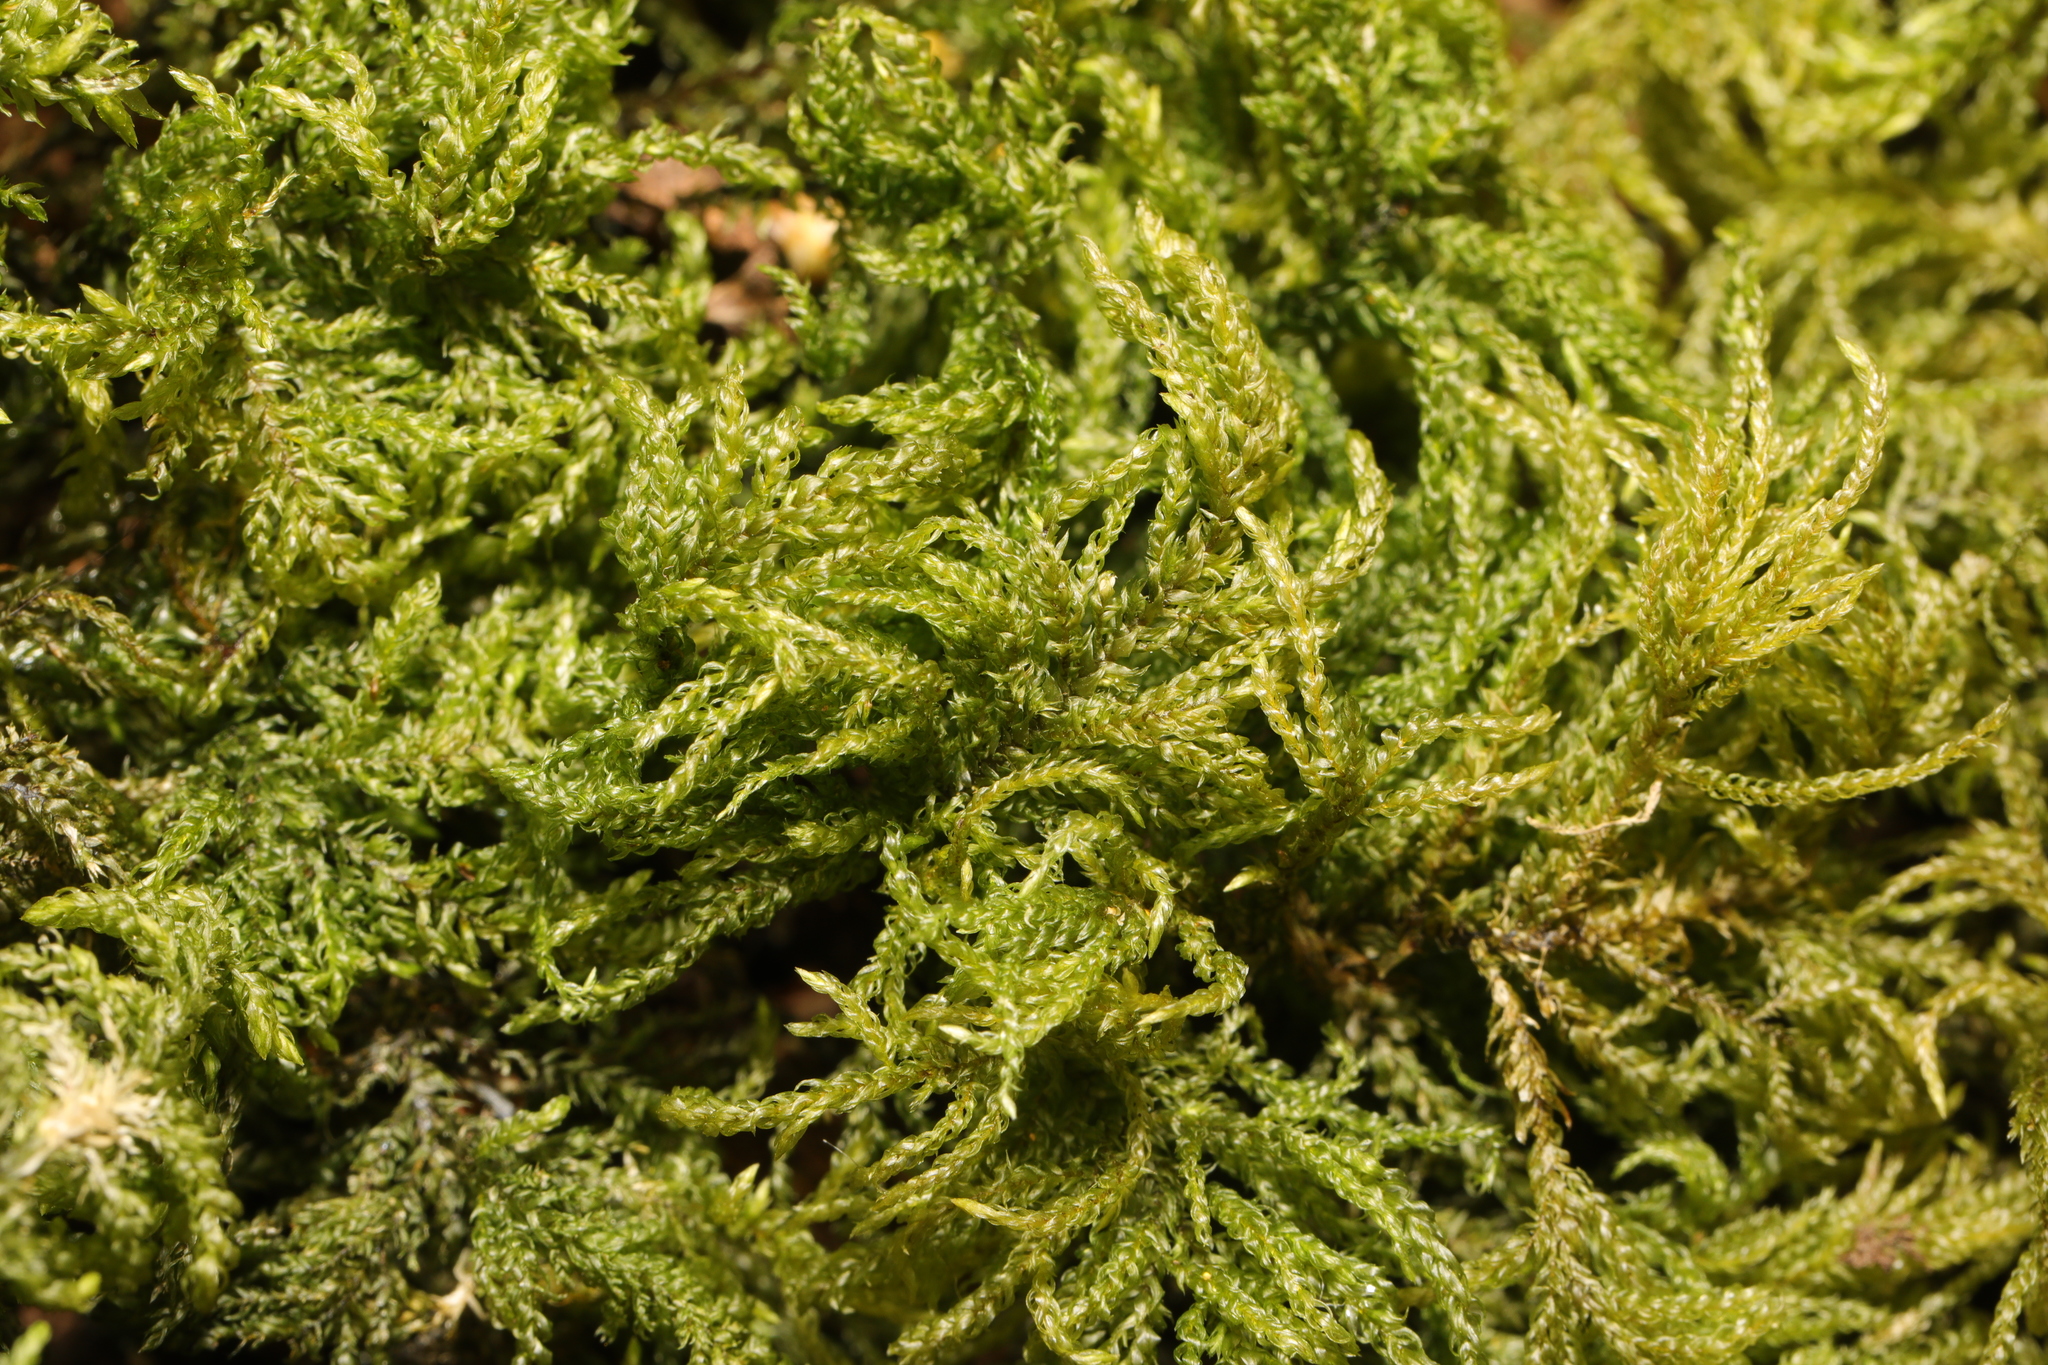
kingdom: Plantae
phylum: Bryophyta
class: Bryopsida
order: Hypnales
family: Neckeraceae
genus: Thamnobryum
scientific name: Thamnobryum alopecurum
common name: Fox-tail feather-moss
